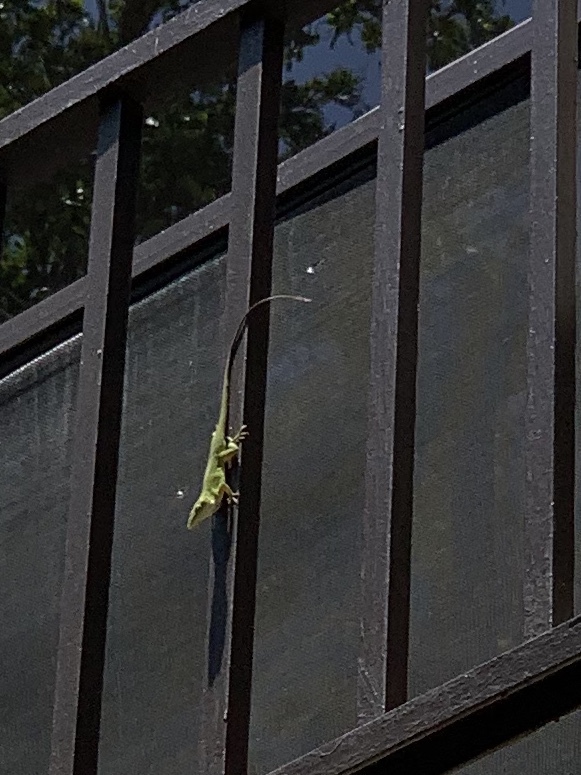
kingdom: Animalia
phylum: Chordata
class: Squamata
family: Dactyloidae
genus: Anolis
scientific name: Anolis carolinensis
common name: Green anole
